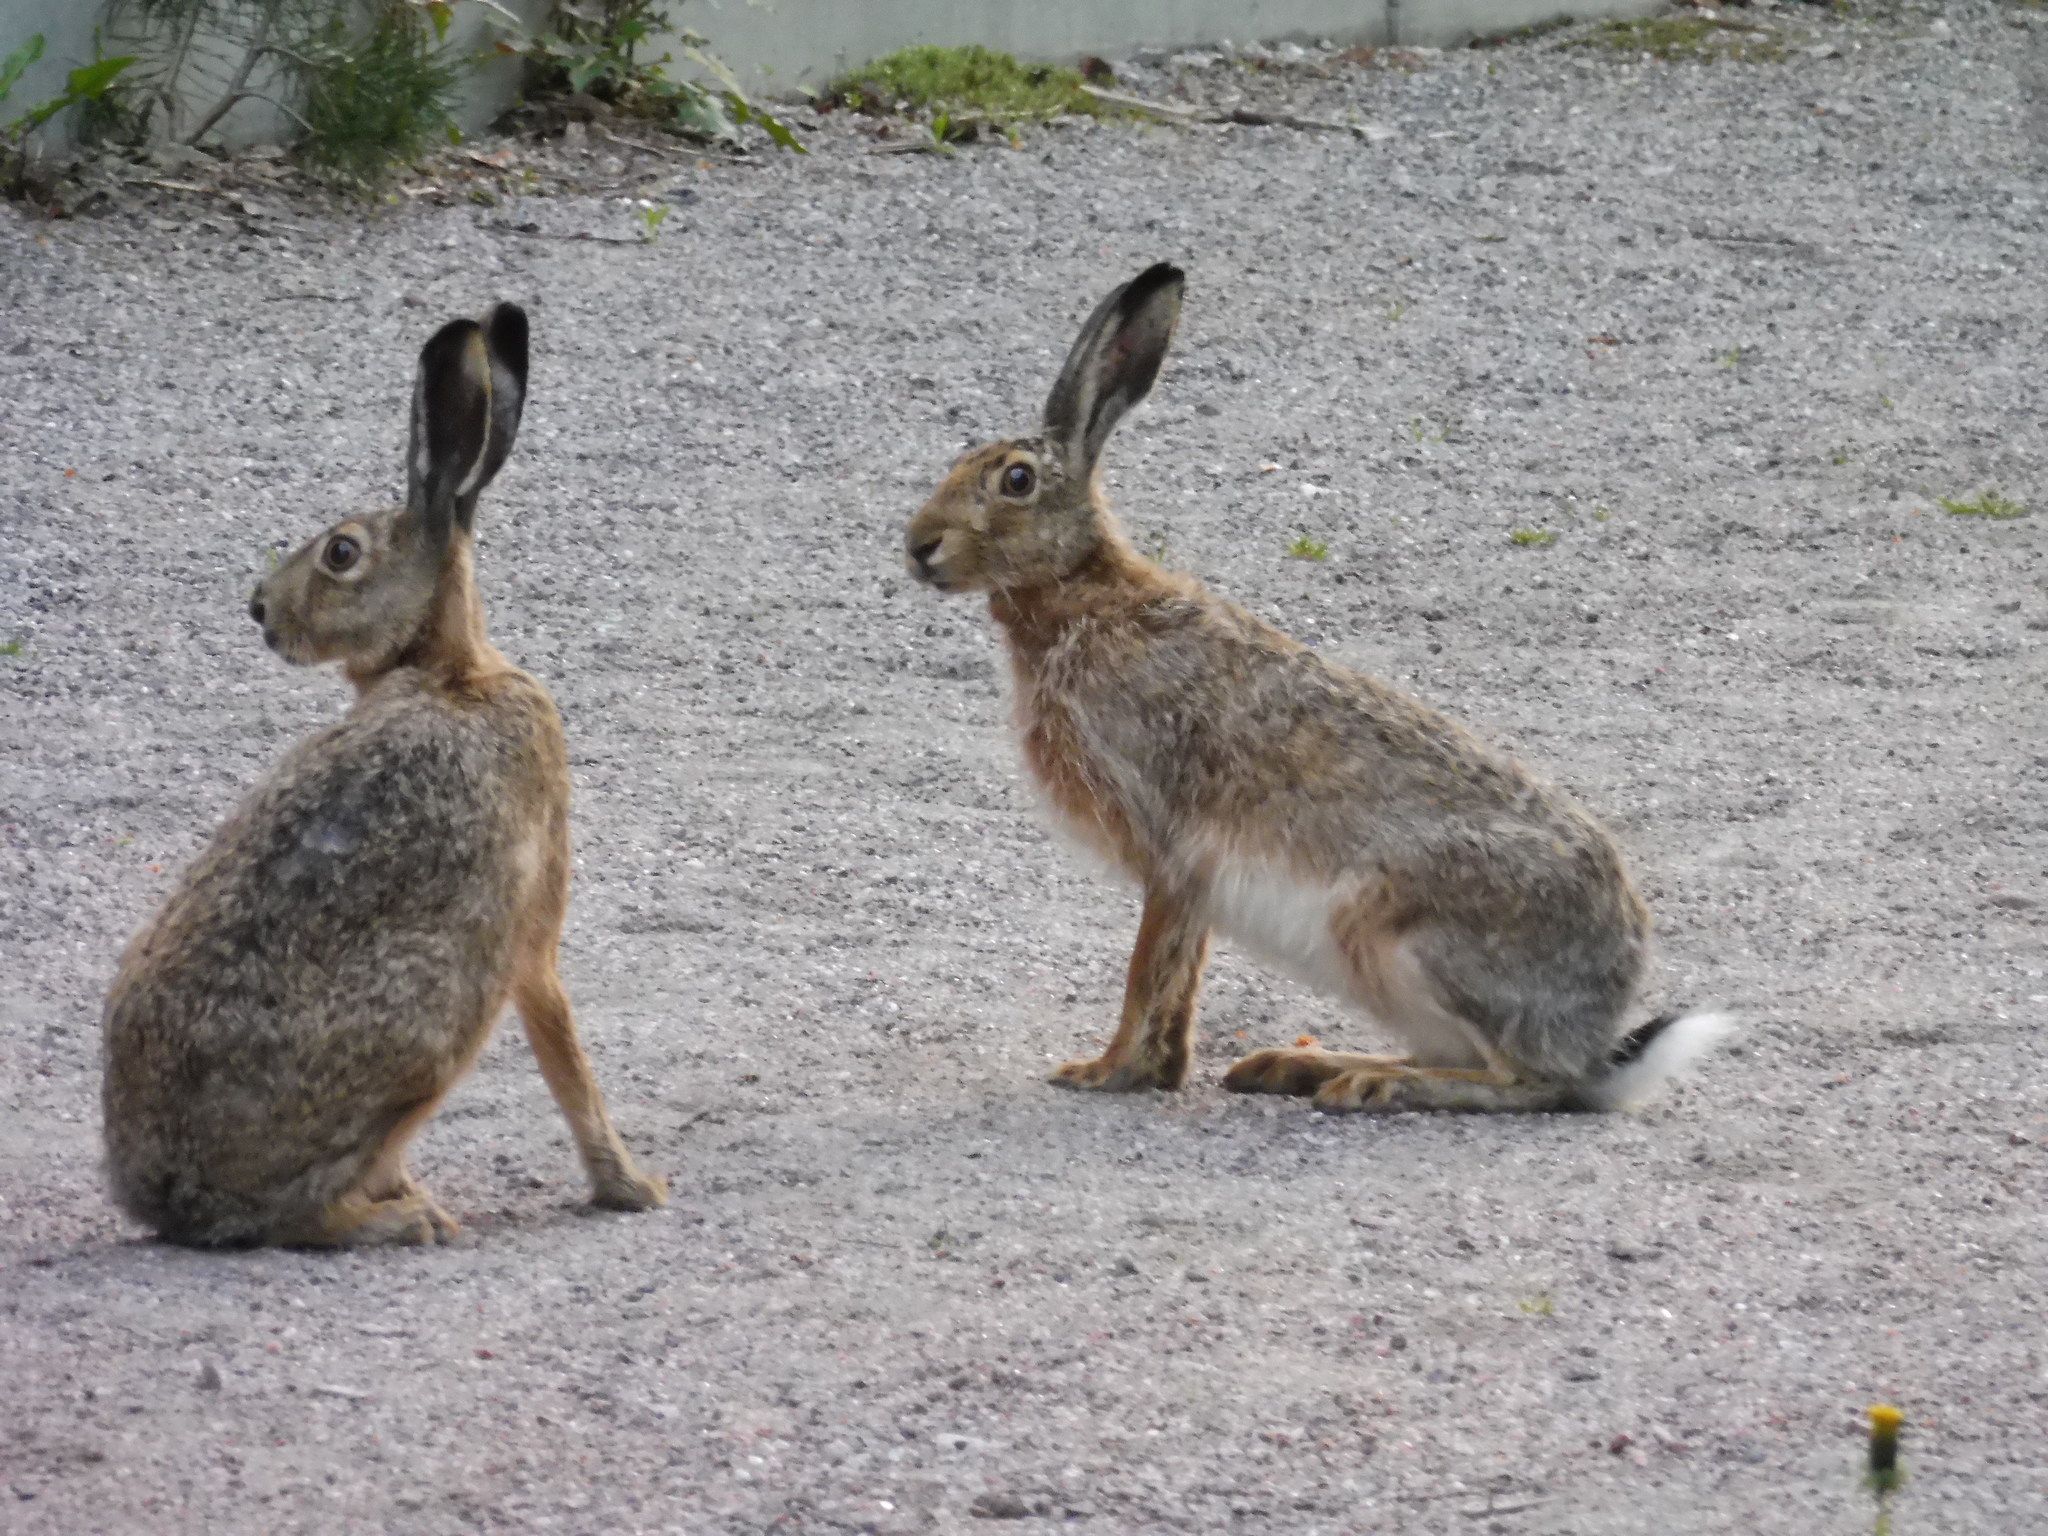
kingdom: Animalia
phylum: Chordata
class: Mammalia
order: Lagomorpha
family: Leporidae
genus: Lepus
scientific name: Lepus europaeus
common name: European hare
